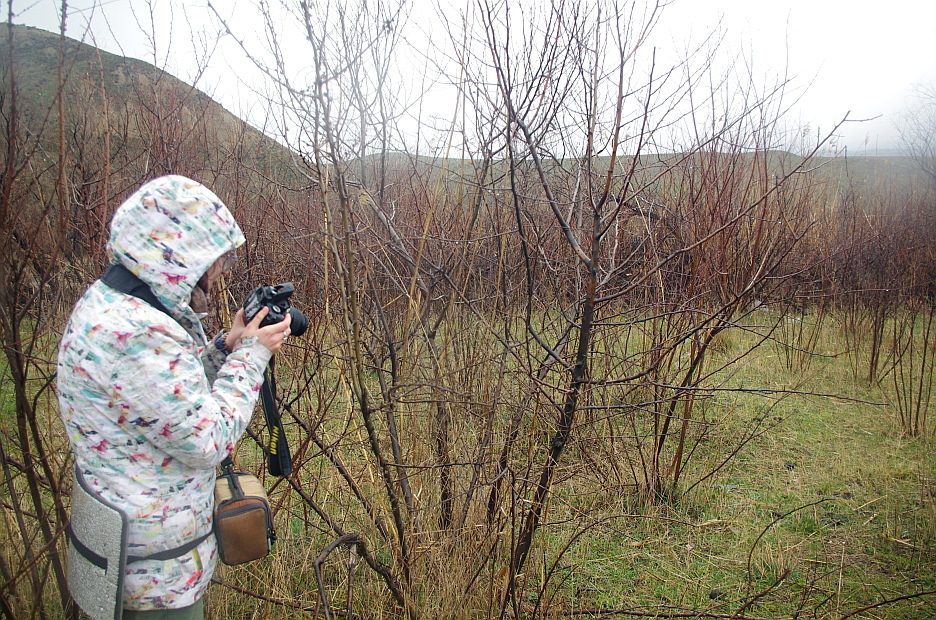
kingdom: Plantae
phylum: Tracheophyta
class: Magnoliopsida
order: Rosales
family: Elaeagnaceae
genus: Elaeagnus
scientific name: Elaeagnus angustifolia
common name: Russian olive
